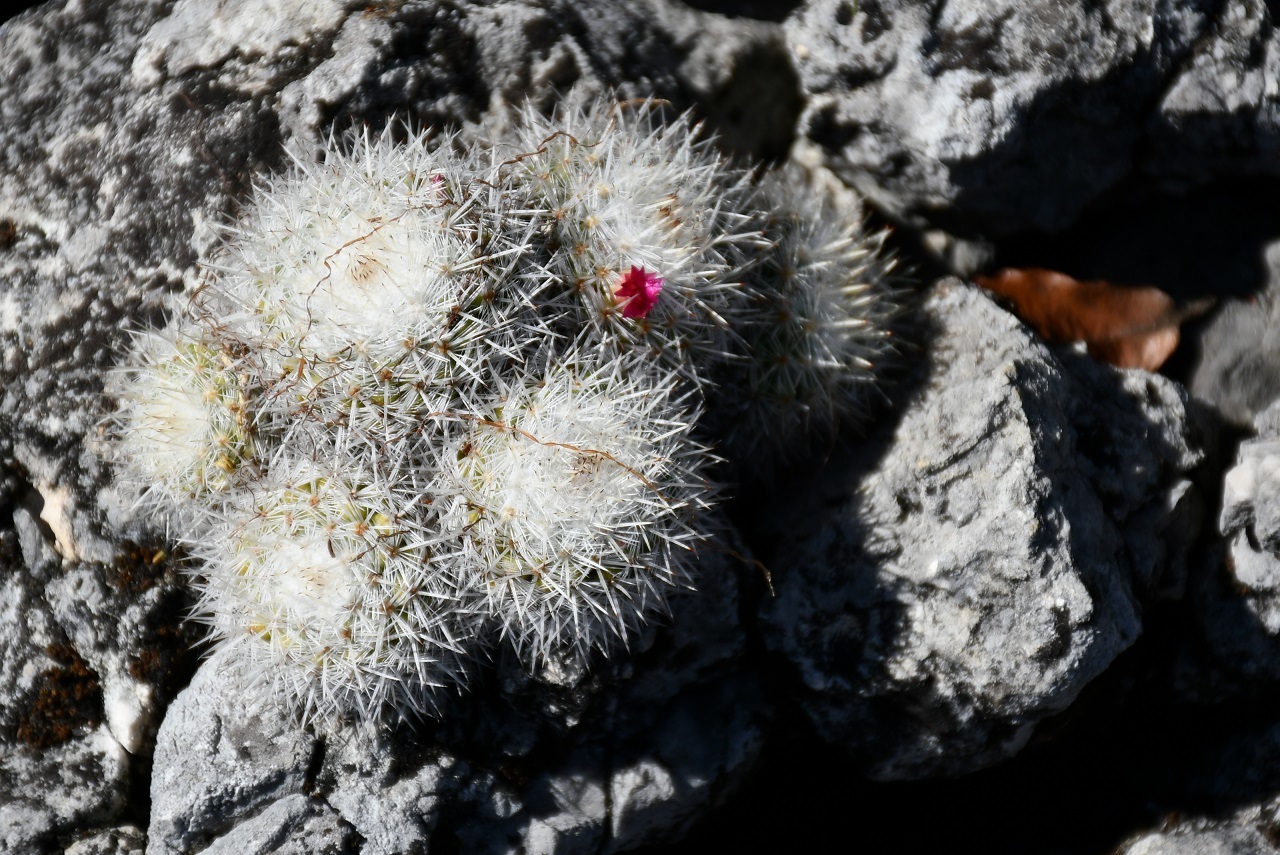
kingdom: Plantae
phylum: Tracheophyta
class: Magnoliopsida
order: Caryophyllales
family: Cactaceae
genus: Mammillaria
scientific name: Mammillaria albilanata
